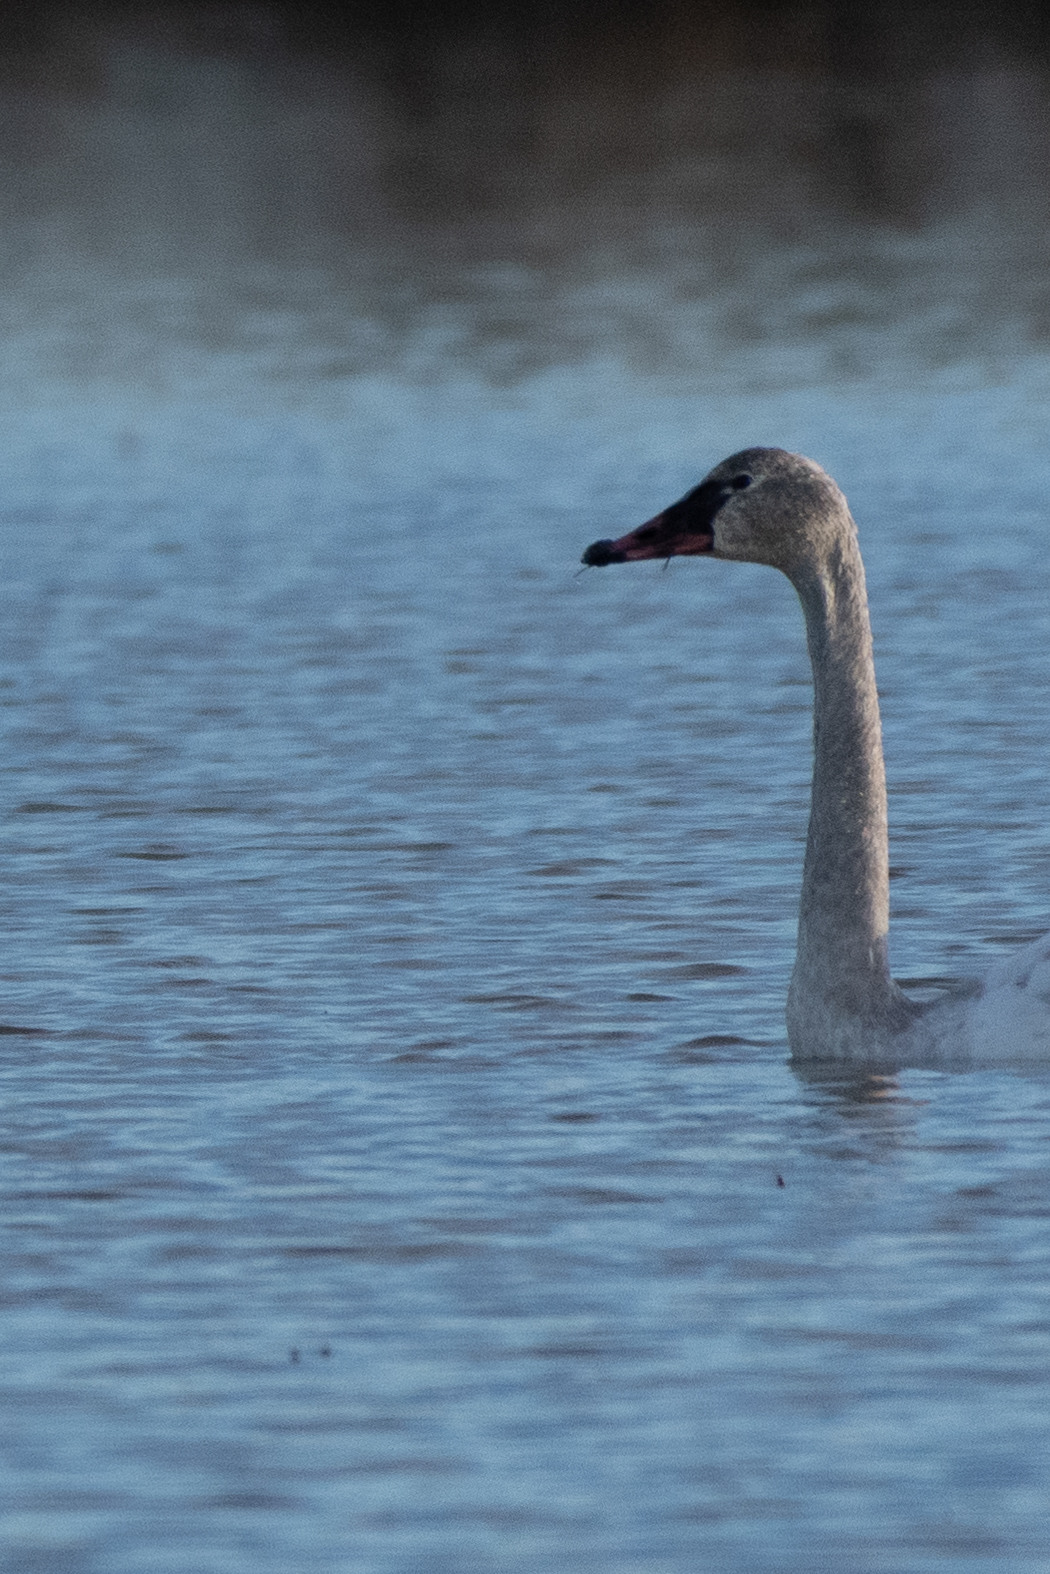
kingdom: Animalia
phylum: Chordata
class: Aves
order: Anseriformes
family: Anatidae
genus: Cygnus
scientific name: Cygnus columbianus
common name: Tundra swan
